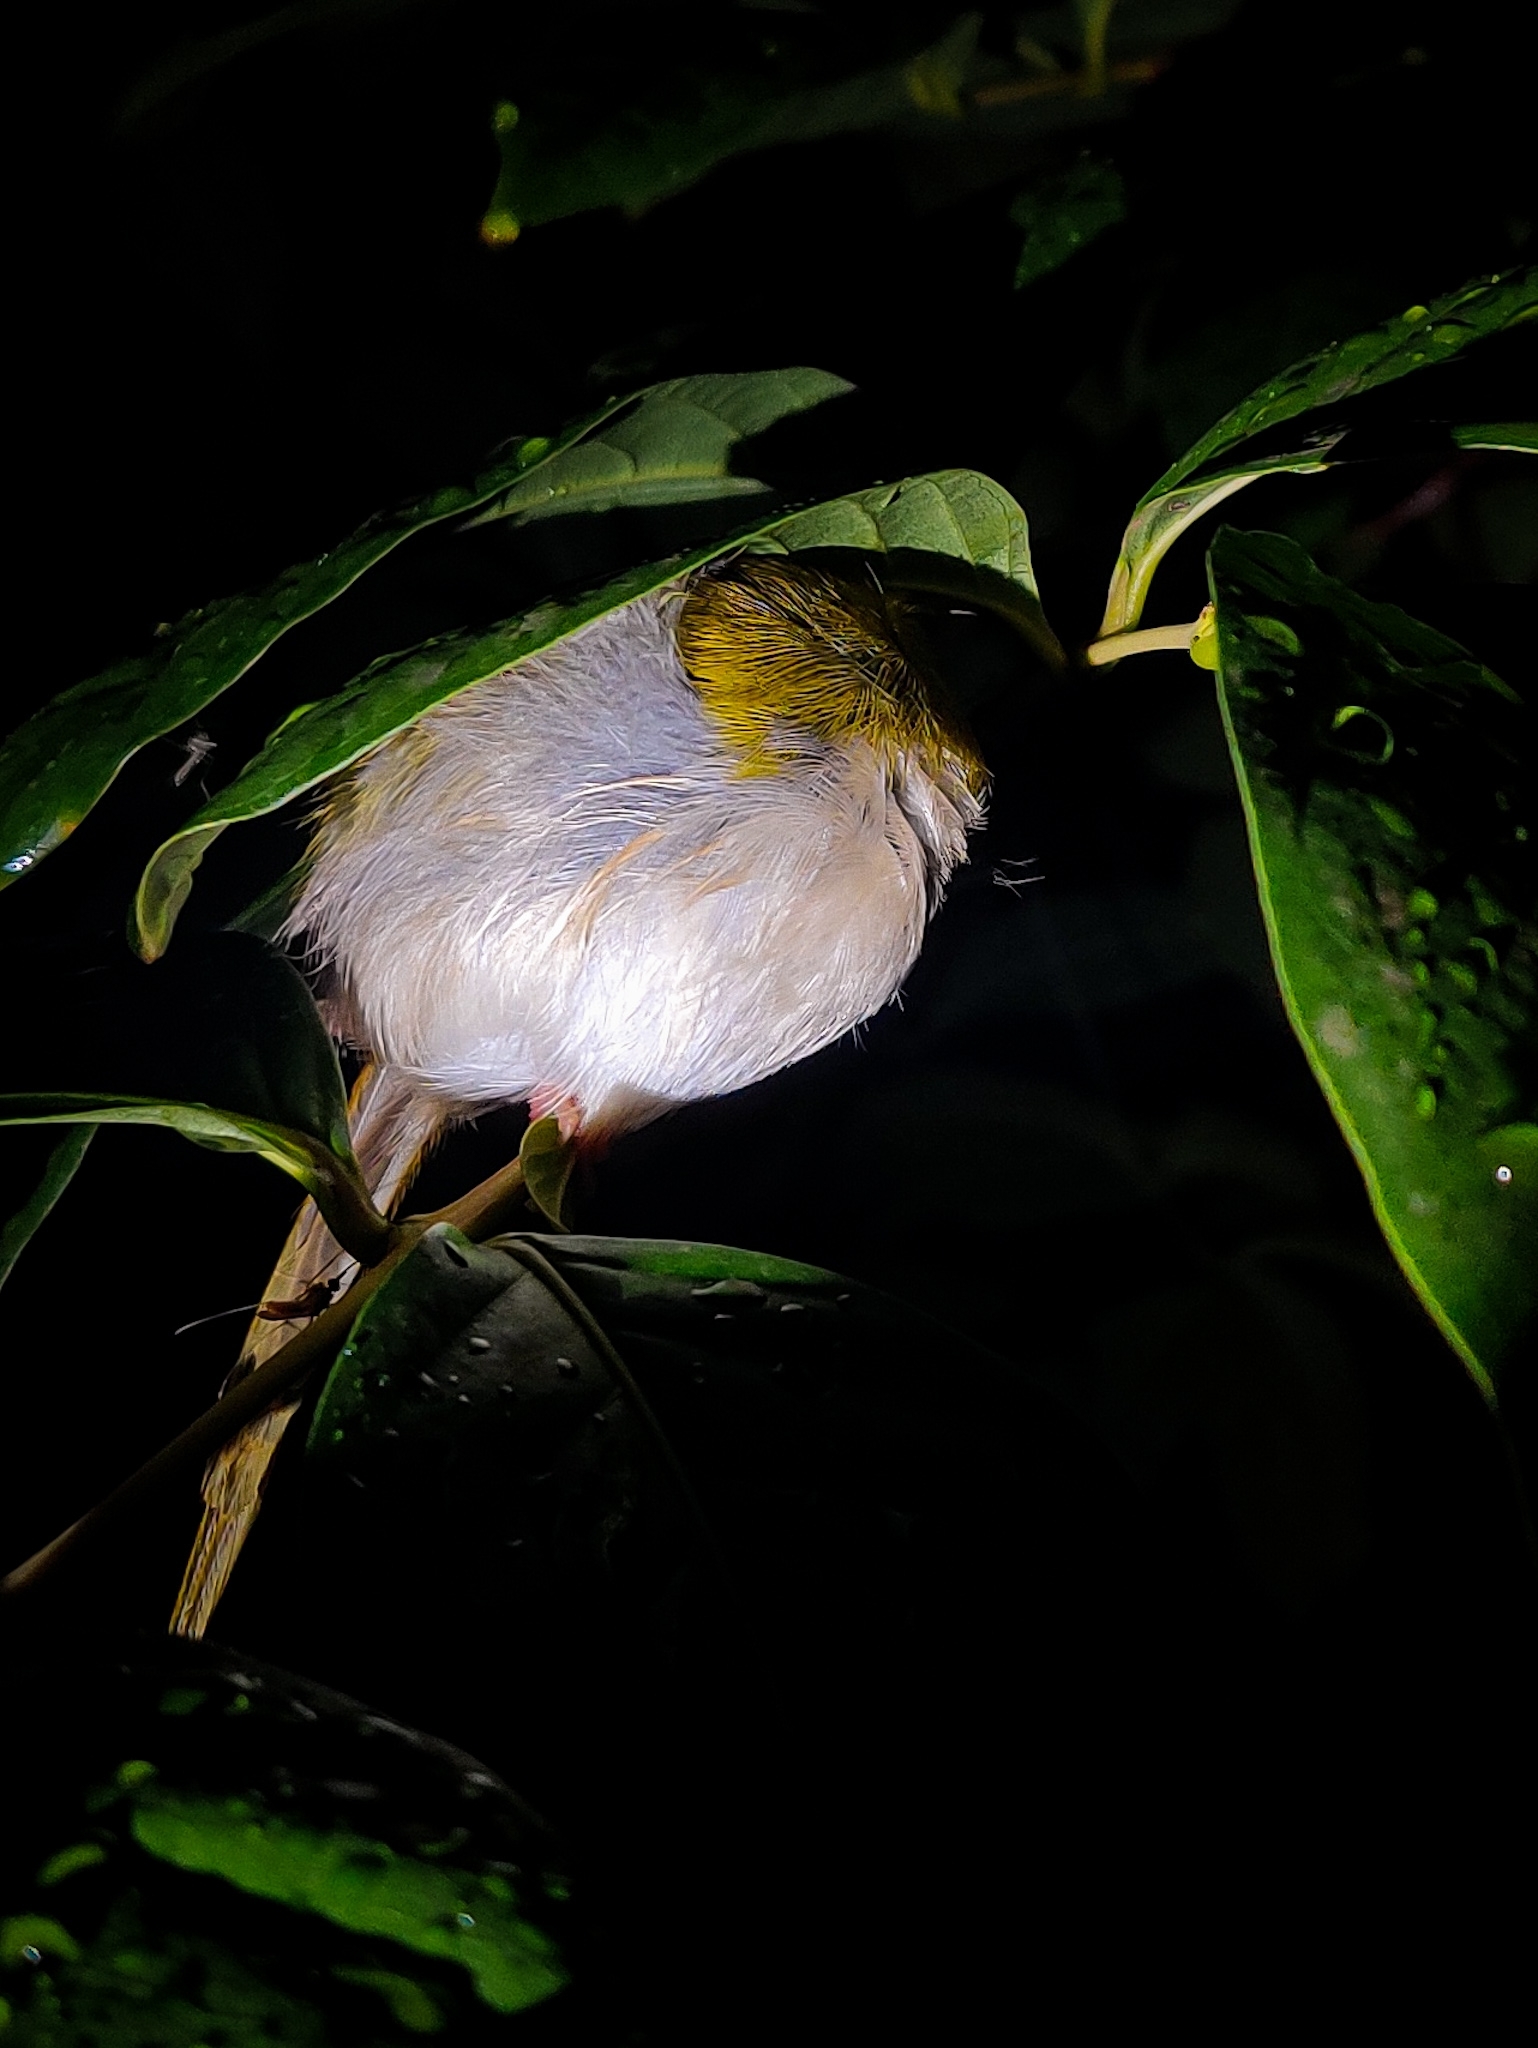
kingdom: Animalia
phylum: Chordata
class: Aves
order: Passeriformes
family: Cisticolidae
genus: Orthotomus
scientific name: Orthotomus sutorius
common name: Common tailorbird
